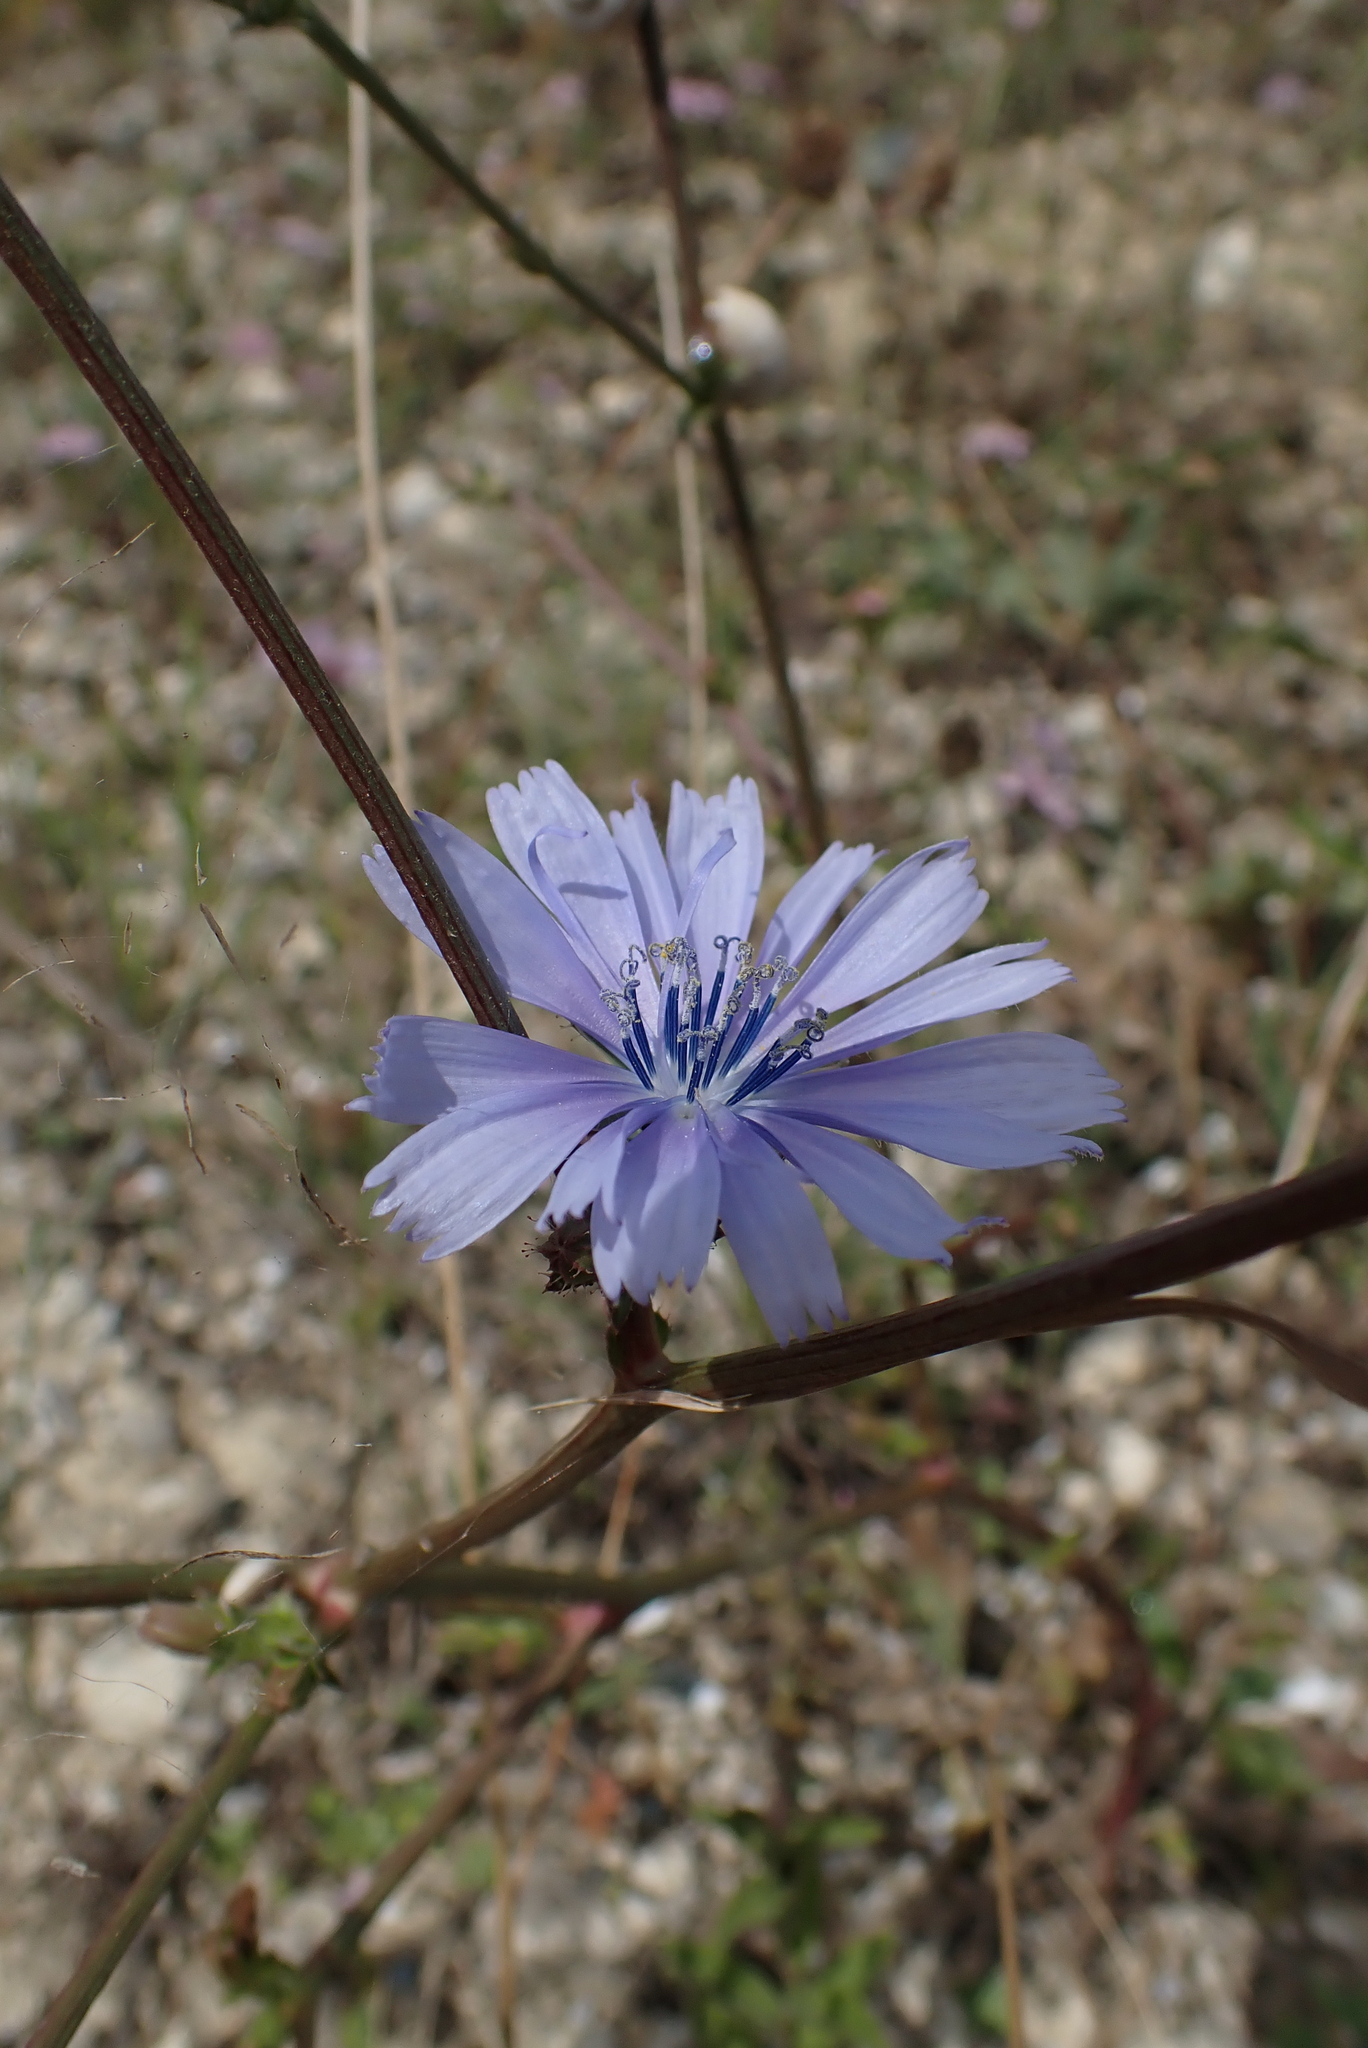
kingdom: Plantae
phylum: Tracheophyta
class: Magnoliopsida
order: Asterales
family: Asteraceae
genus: Cichorium
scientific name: Cichorium intybus
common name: Chicory
